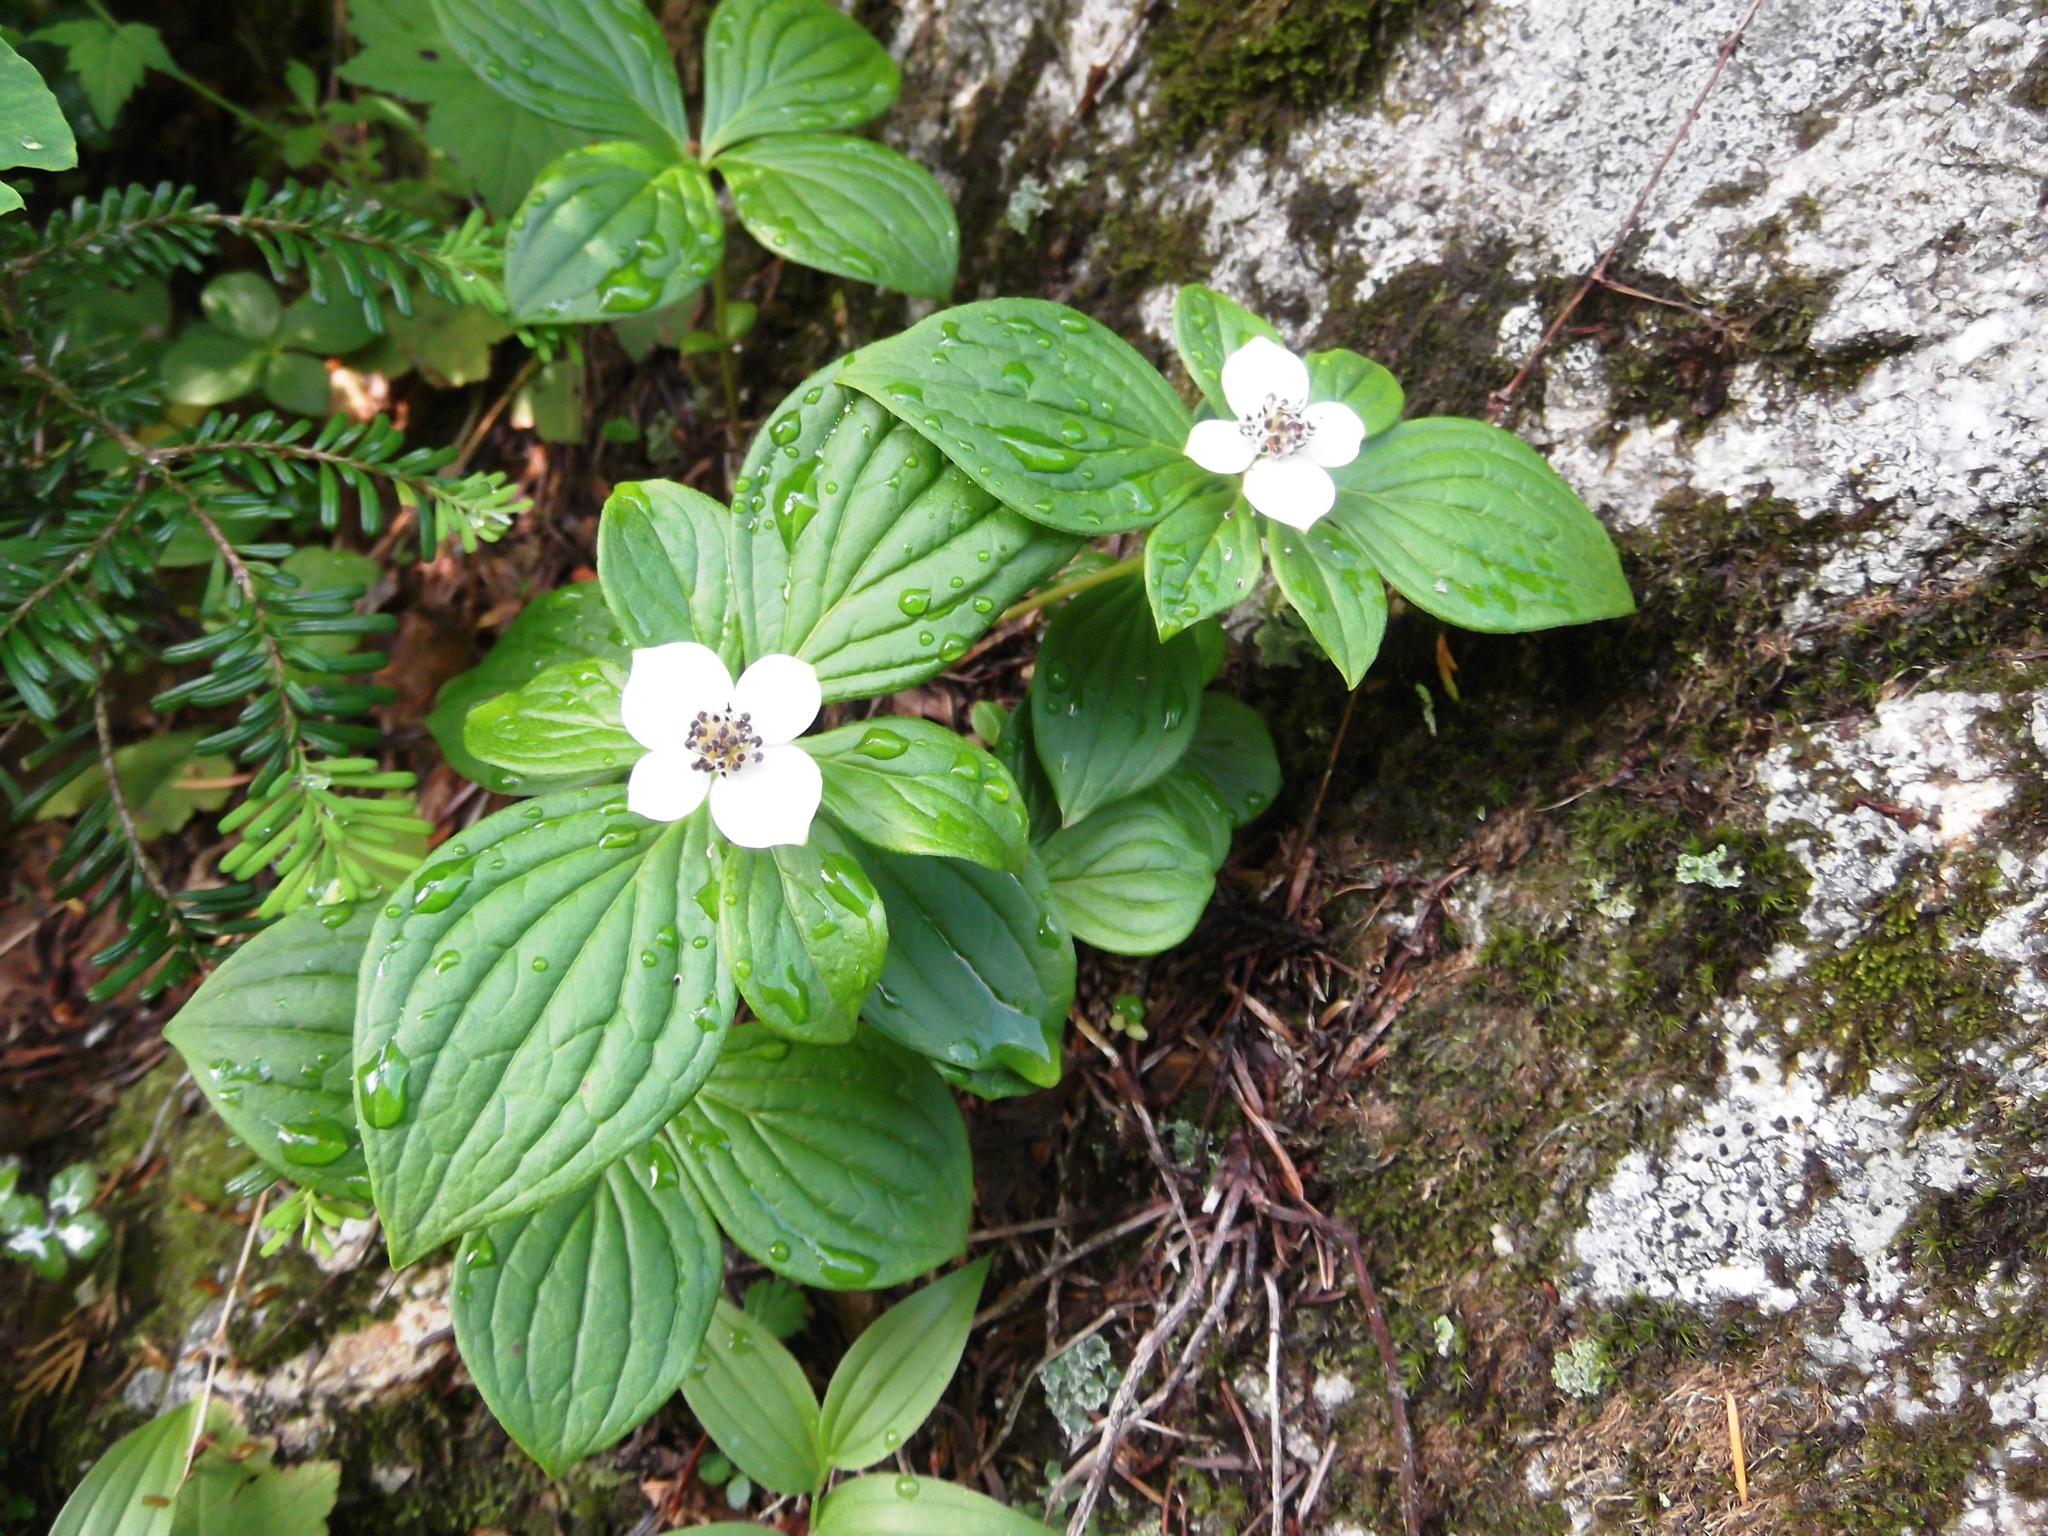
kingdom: Plantae
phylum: Tracheophyta
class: Magnoliopsida
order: Cornales
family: Cornaceae
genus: Cornus
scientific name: Cornus unalaschkensis
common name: Alaska bunchberry
